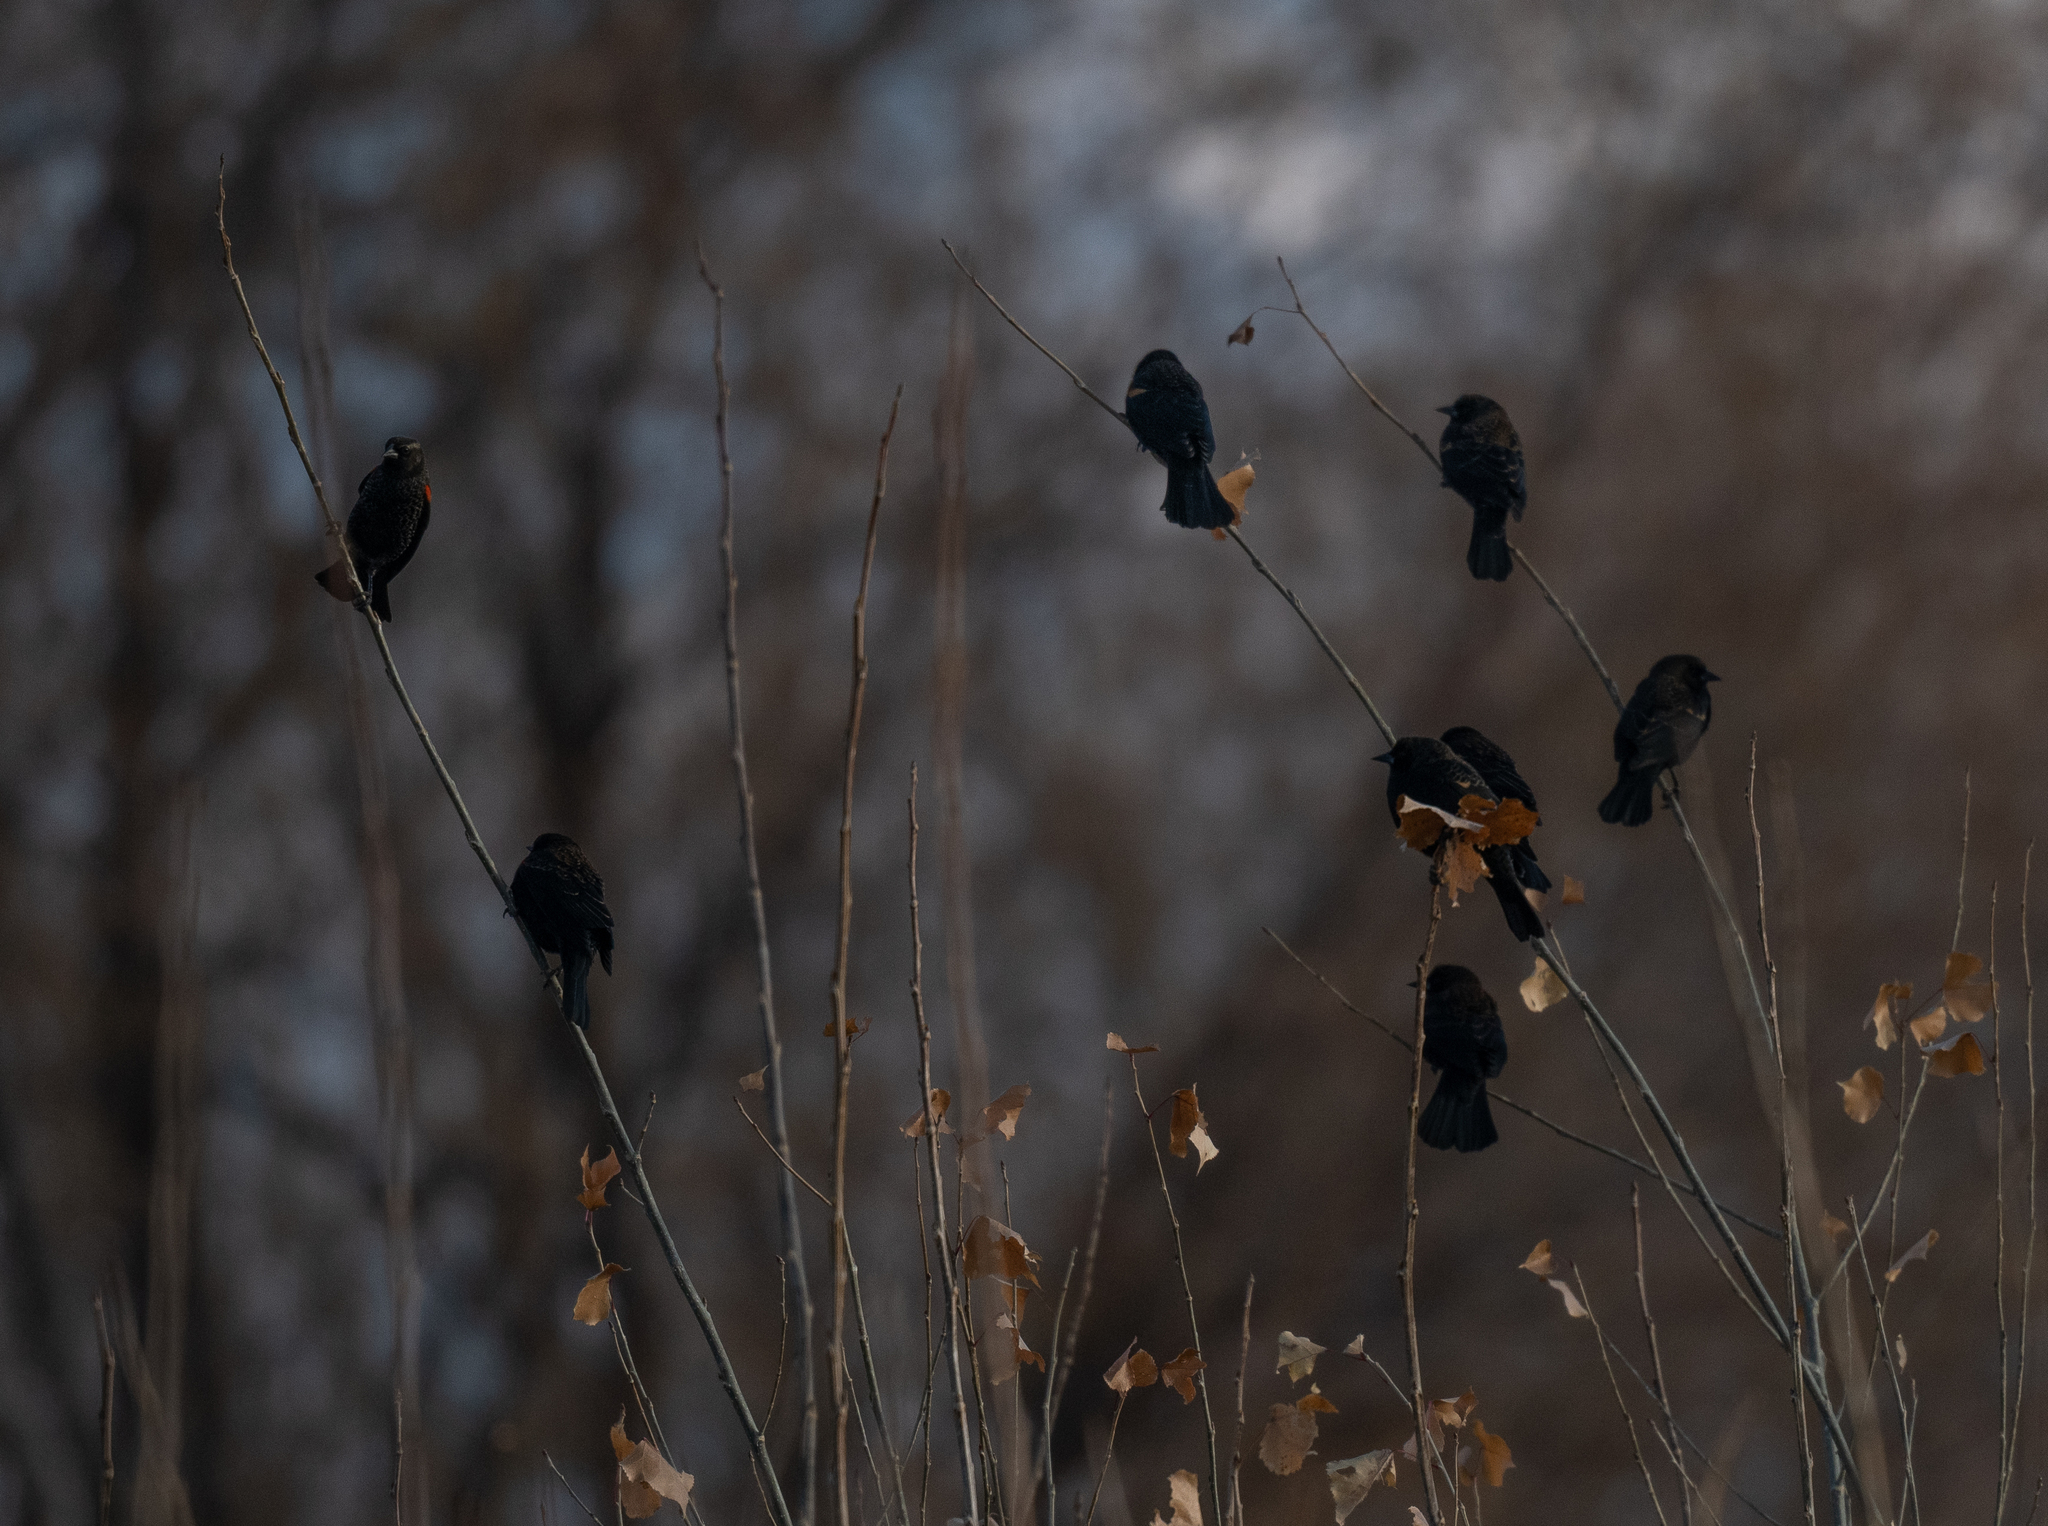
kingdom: Animalia
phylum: Chordata
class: Aves
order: Passeriformes
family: Icteridae
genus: Agelaius
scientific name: Agelaius phoeniceus
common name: Red-winged blackbird
